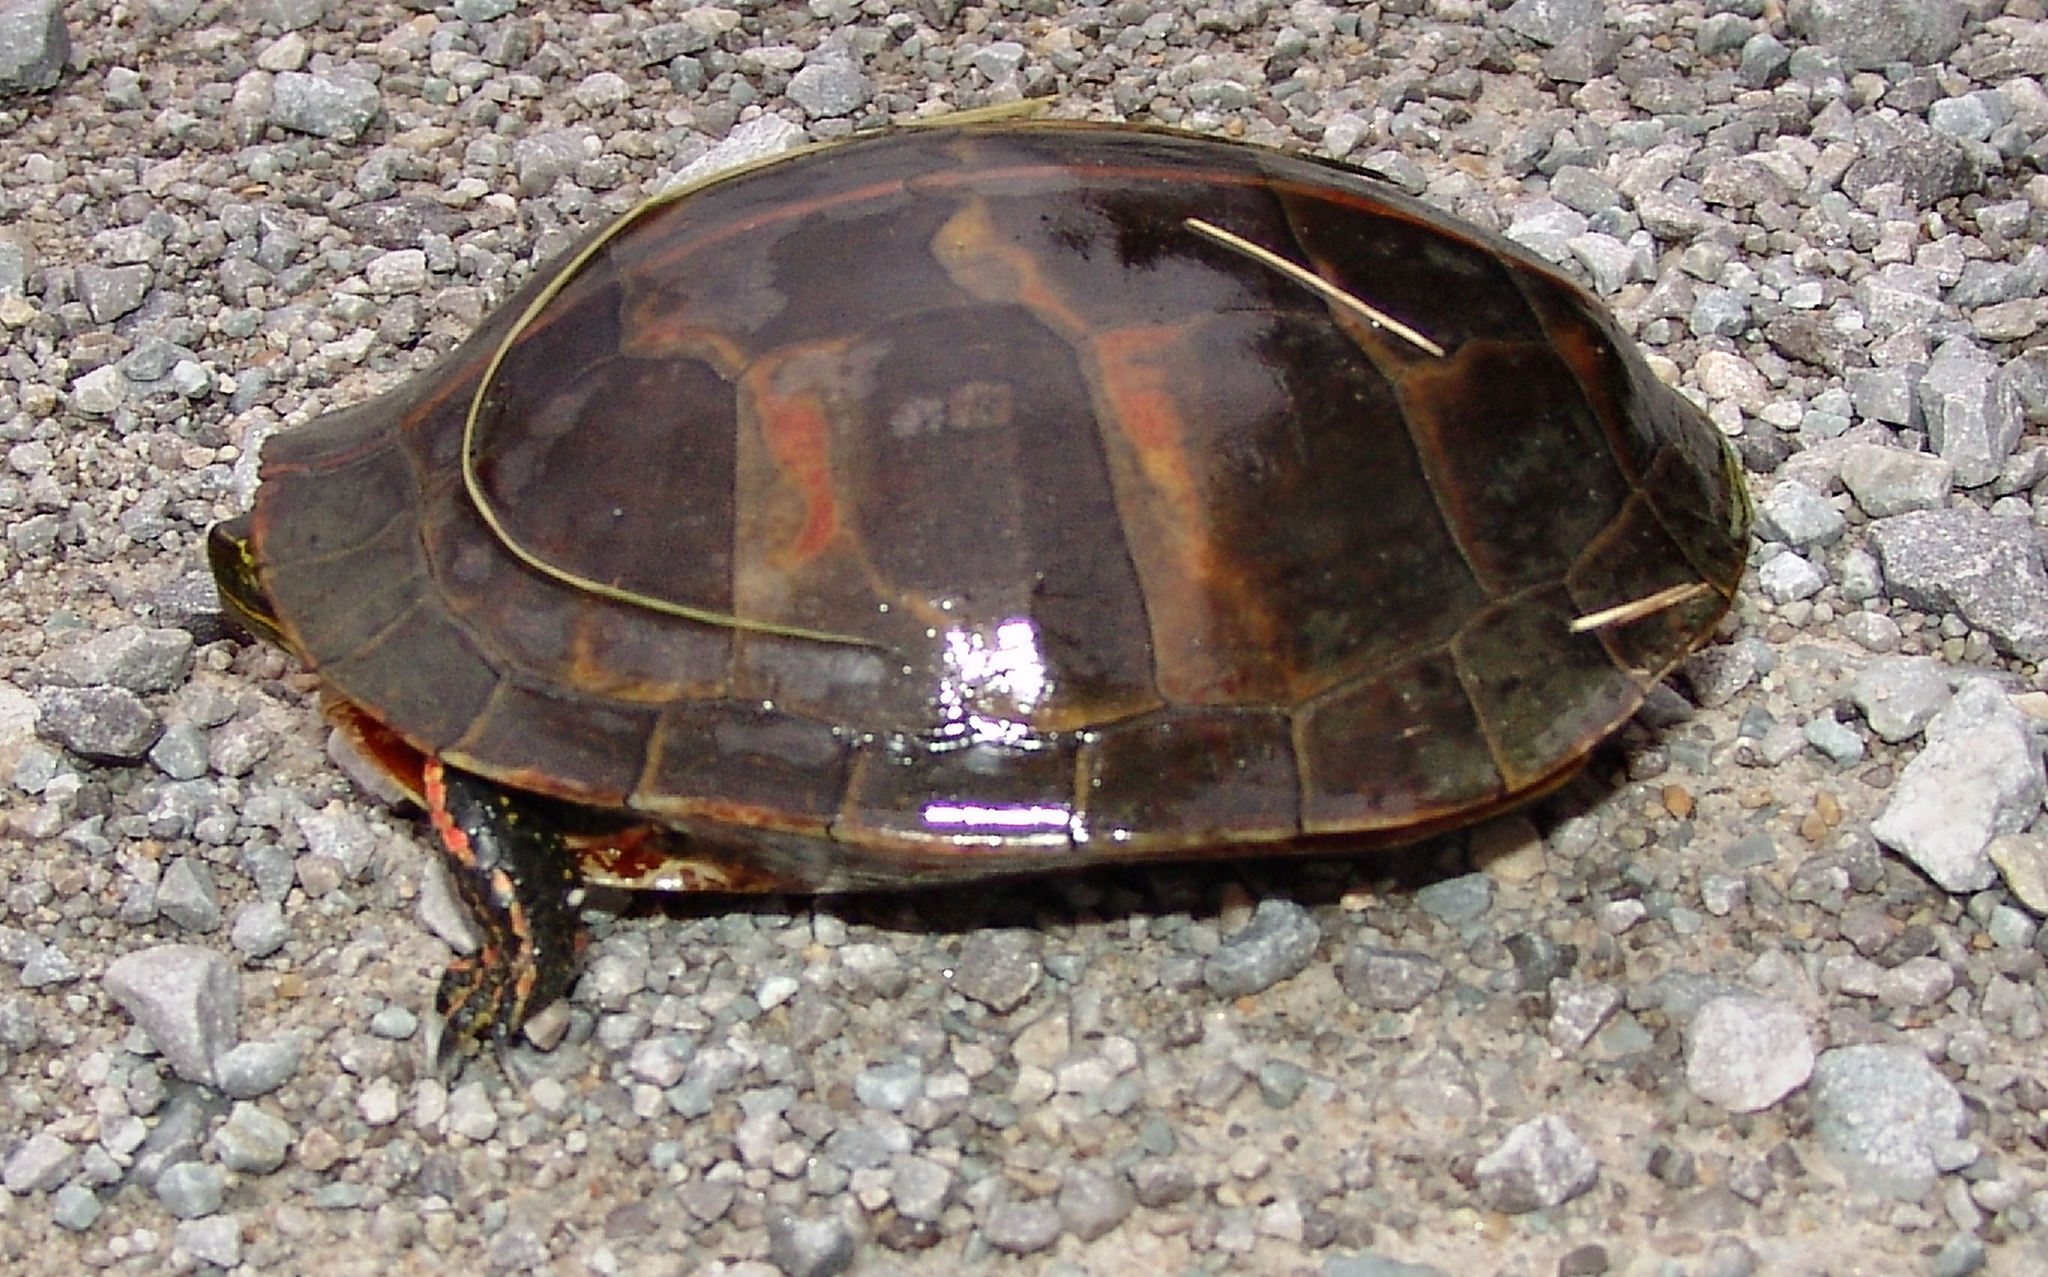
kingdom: Animalia
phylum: Chordata
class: Testudines
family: Emydidae
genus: Chrysemys
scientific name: Chrysemys dorsalis
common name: Southern painted turtle
